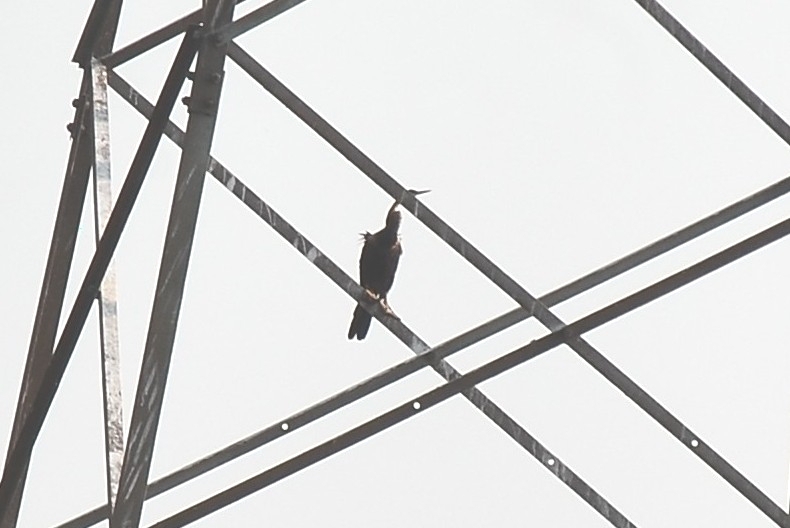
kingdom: Animalia
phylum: Chordata
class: Aves
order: Suliformes
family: Anhingidae
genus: Anhinga
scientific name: Anhinga melanogaster
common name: Oriental darter
